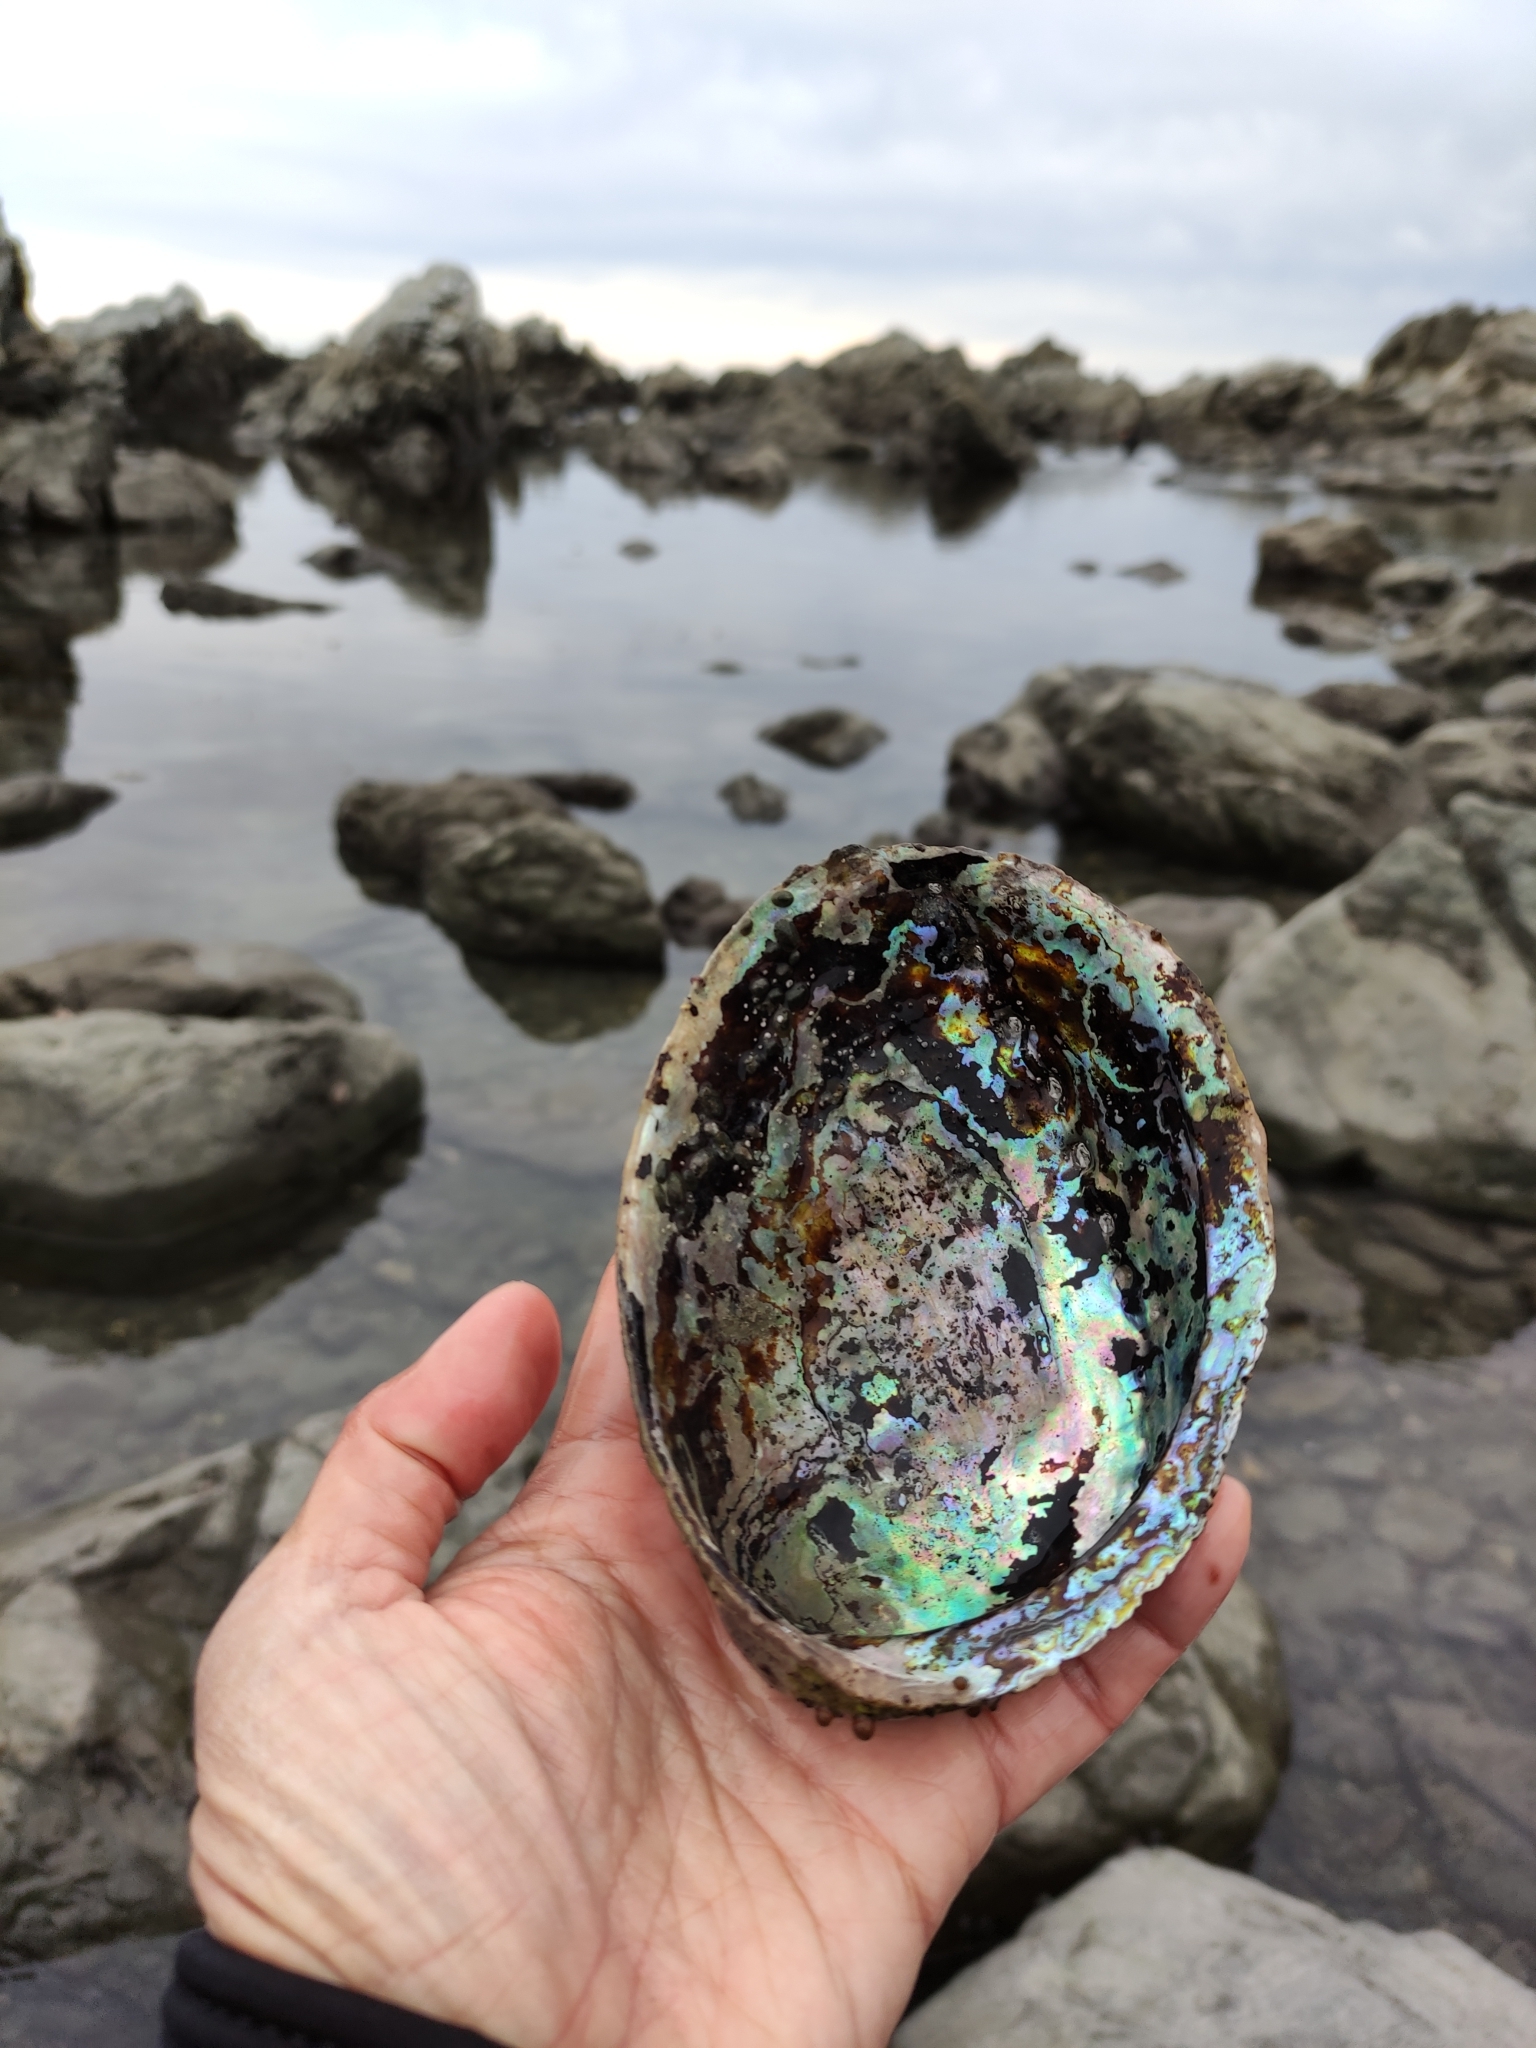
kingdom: Animalia
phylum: Mollusca
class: Gastropoda
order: Lepetellida
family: Haliotidae
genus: Haliotis
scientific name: Haliotis iris
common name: Abalone
